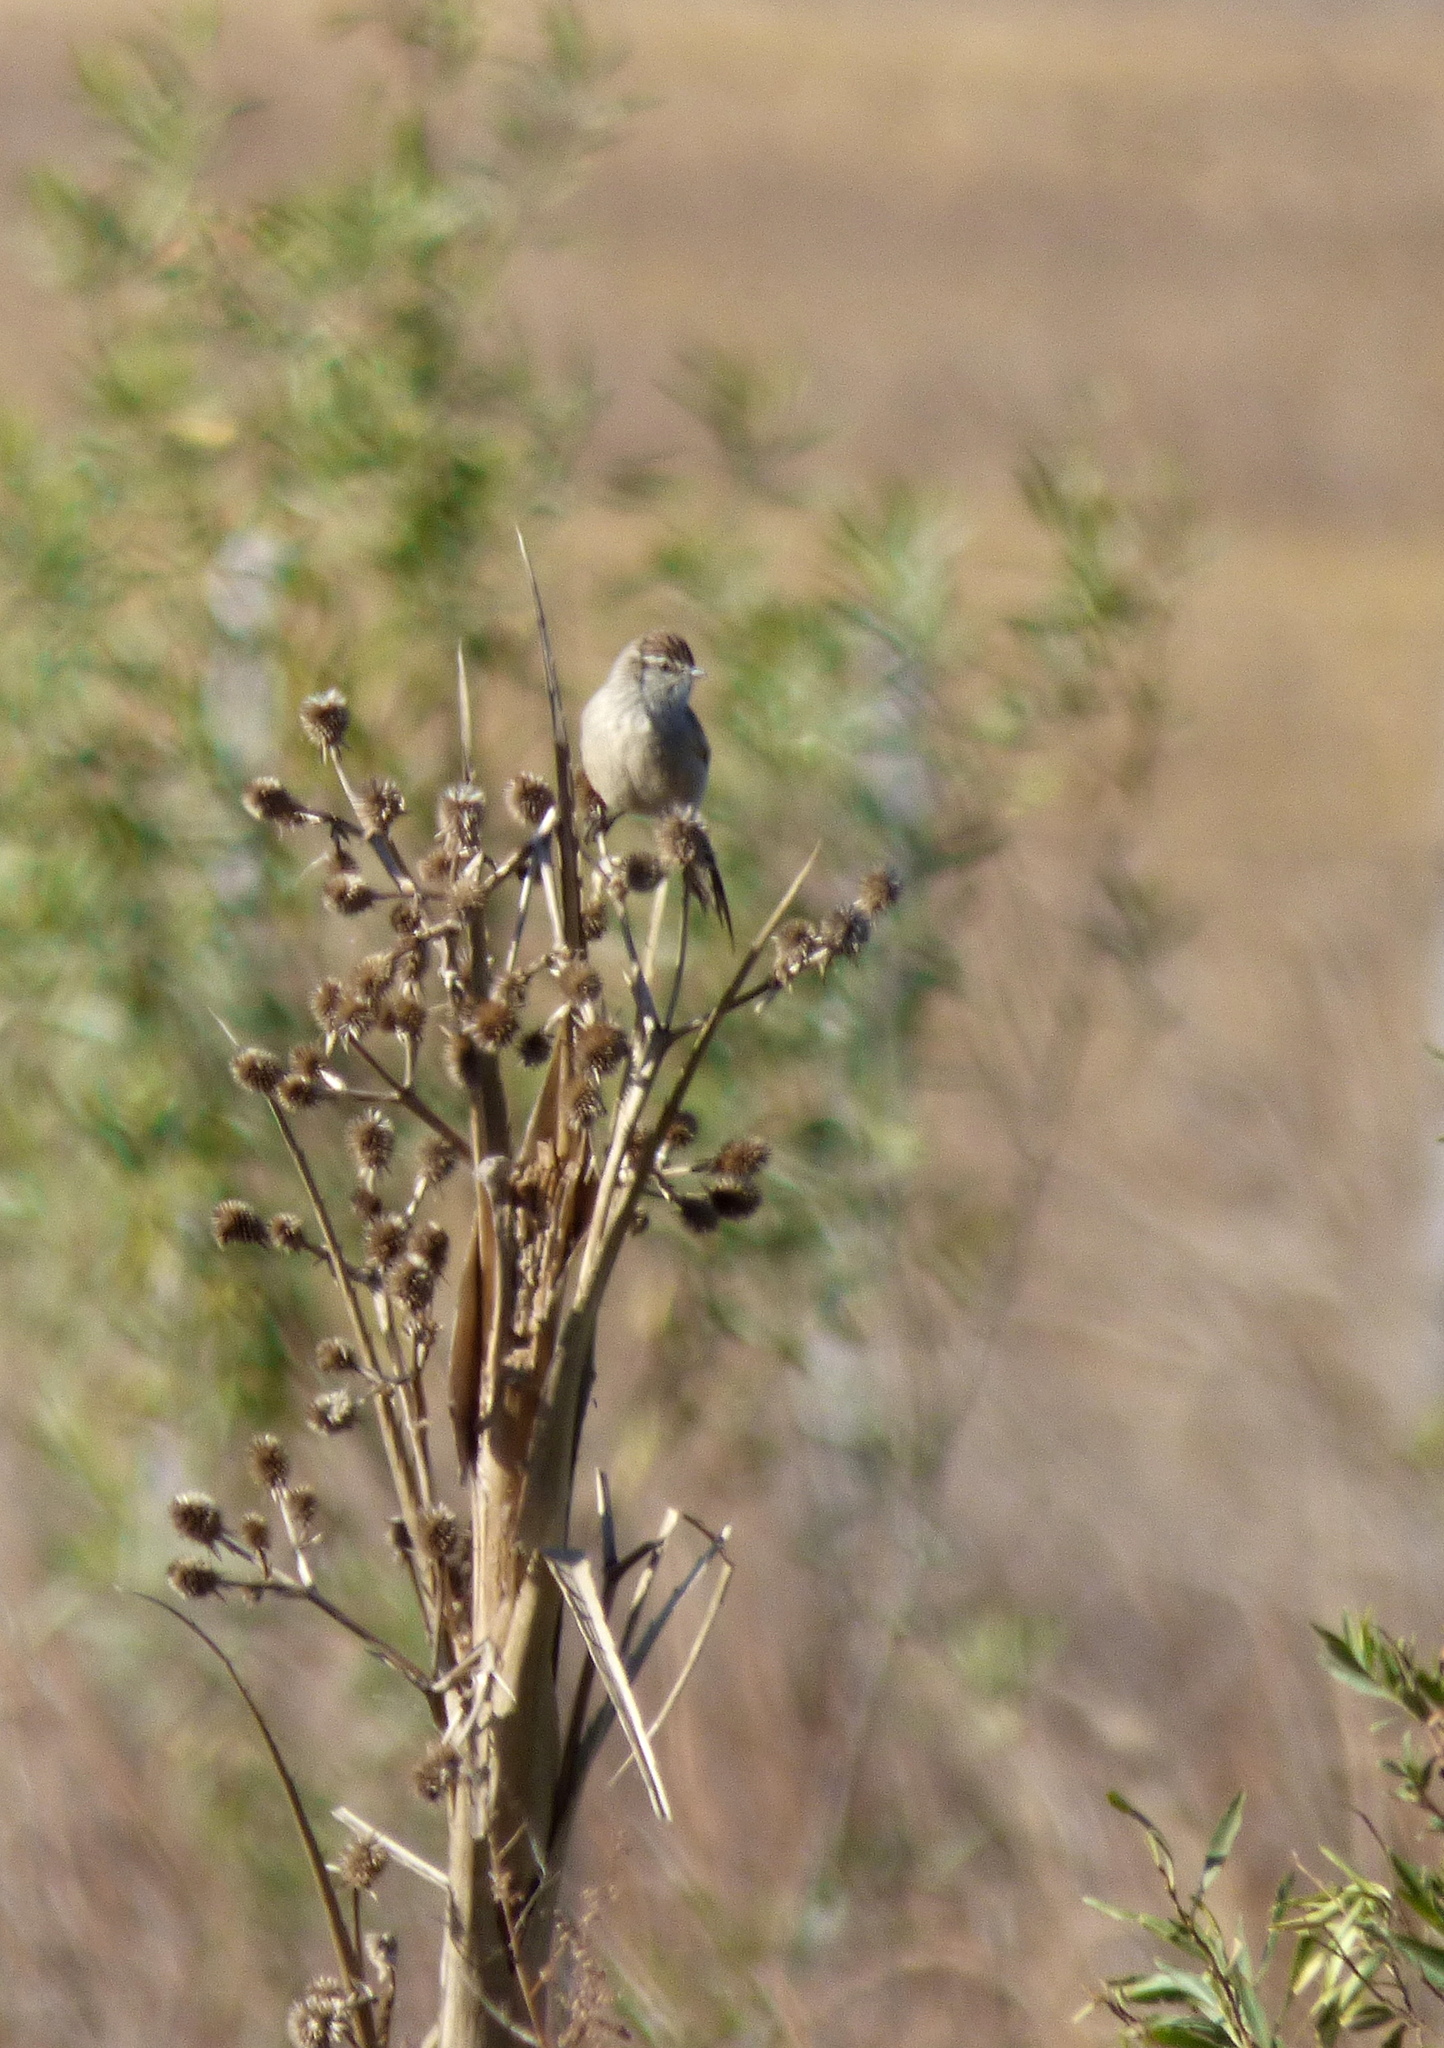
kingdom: Animalia
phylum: Chordata
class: Aves
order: Passeriformes
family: Furnariidae
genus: Leptasthenura
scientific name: Leptasthenura aegithaloides
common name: Plain-mantled tit-spinetail
